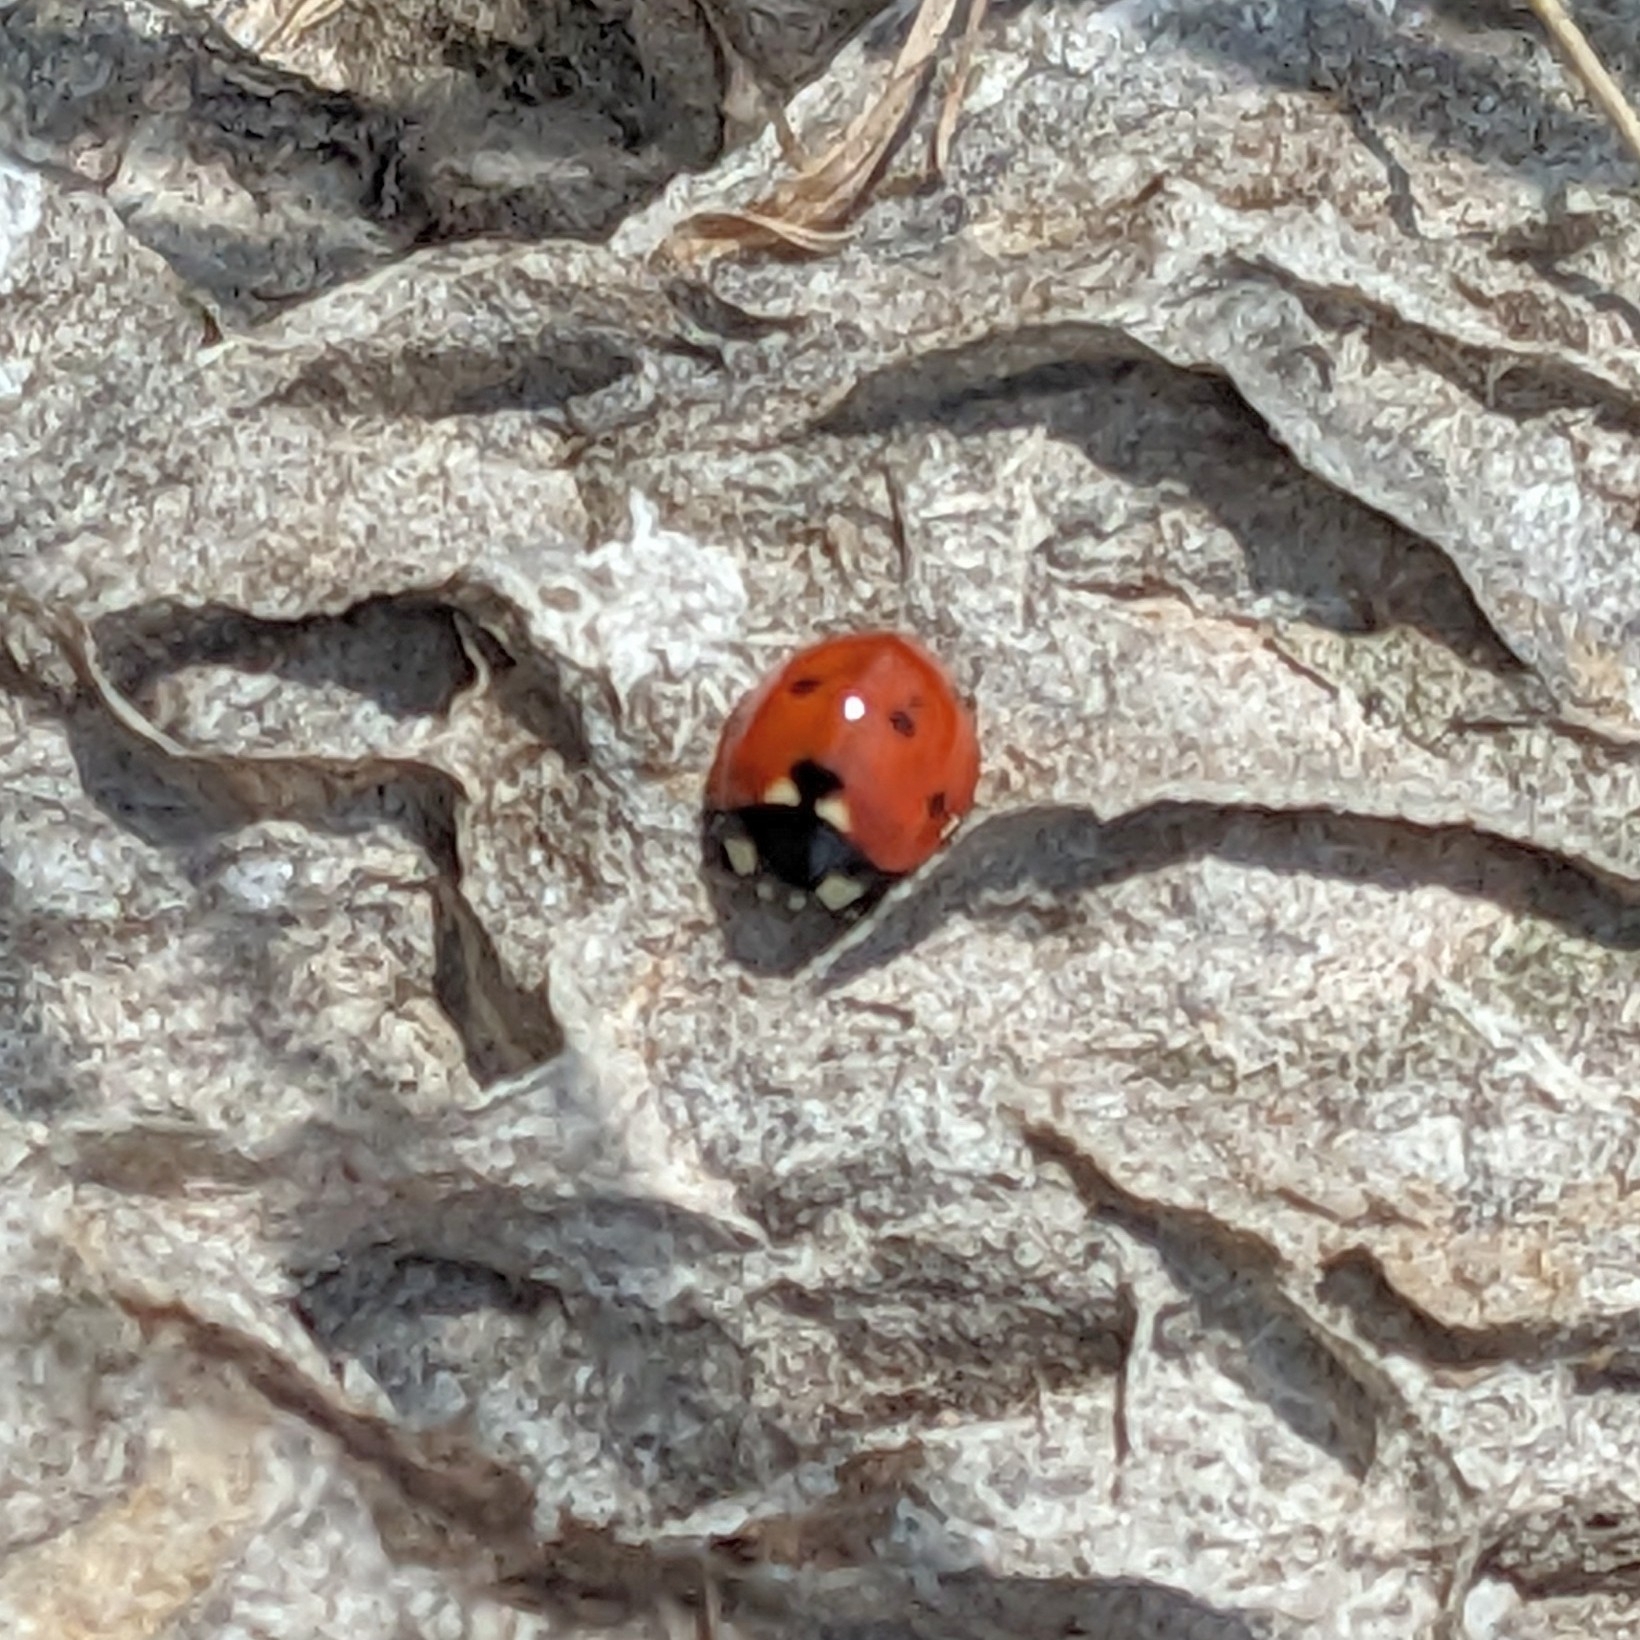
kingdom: Animalia
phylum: Arthropoda
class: Insecta
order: Coleoptera
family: Coccinellidae
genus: Coccinella
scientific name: Coccinella septempunctata
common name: Sevenspotted lady beetle
